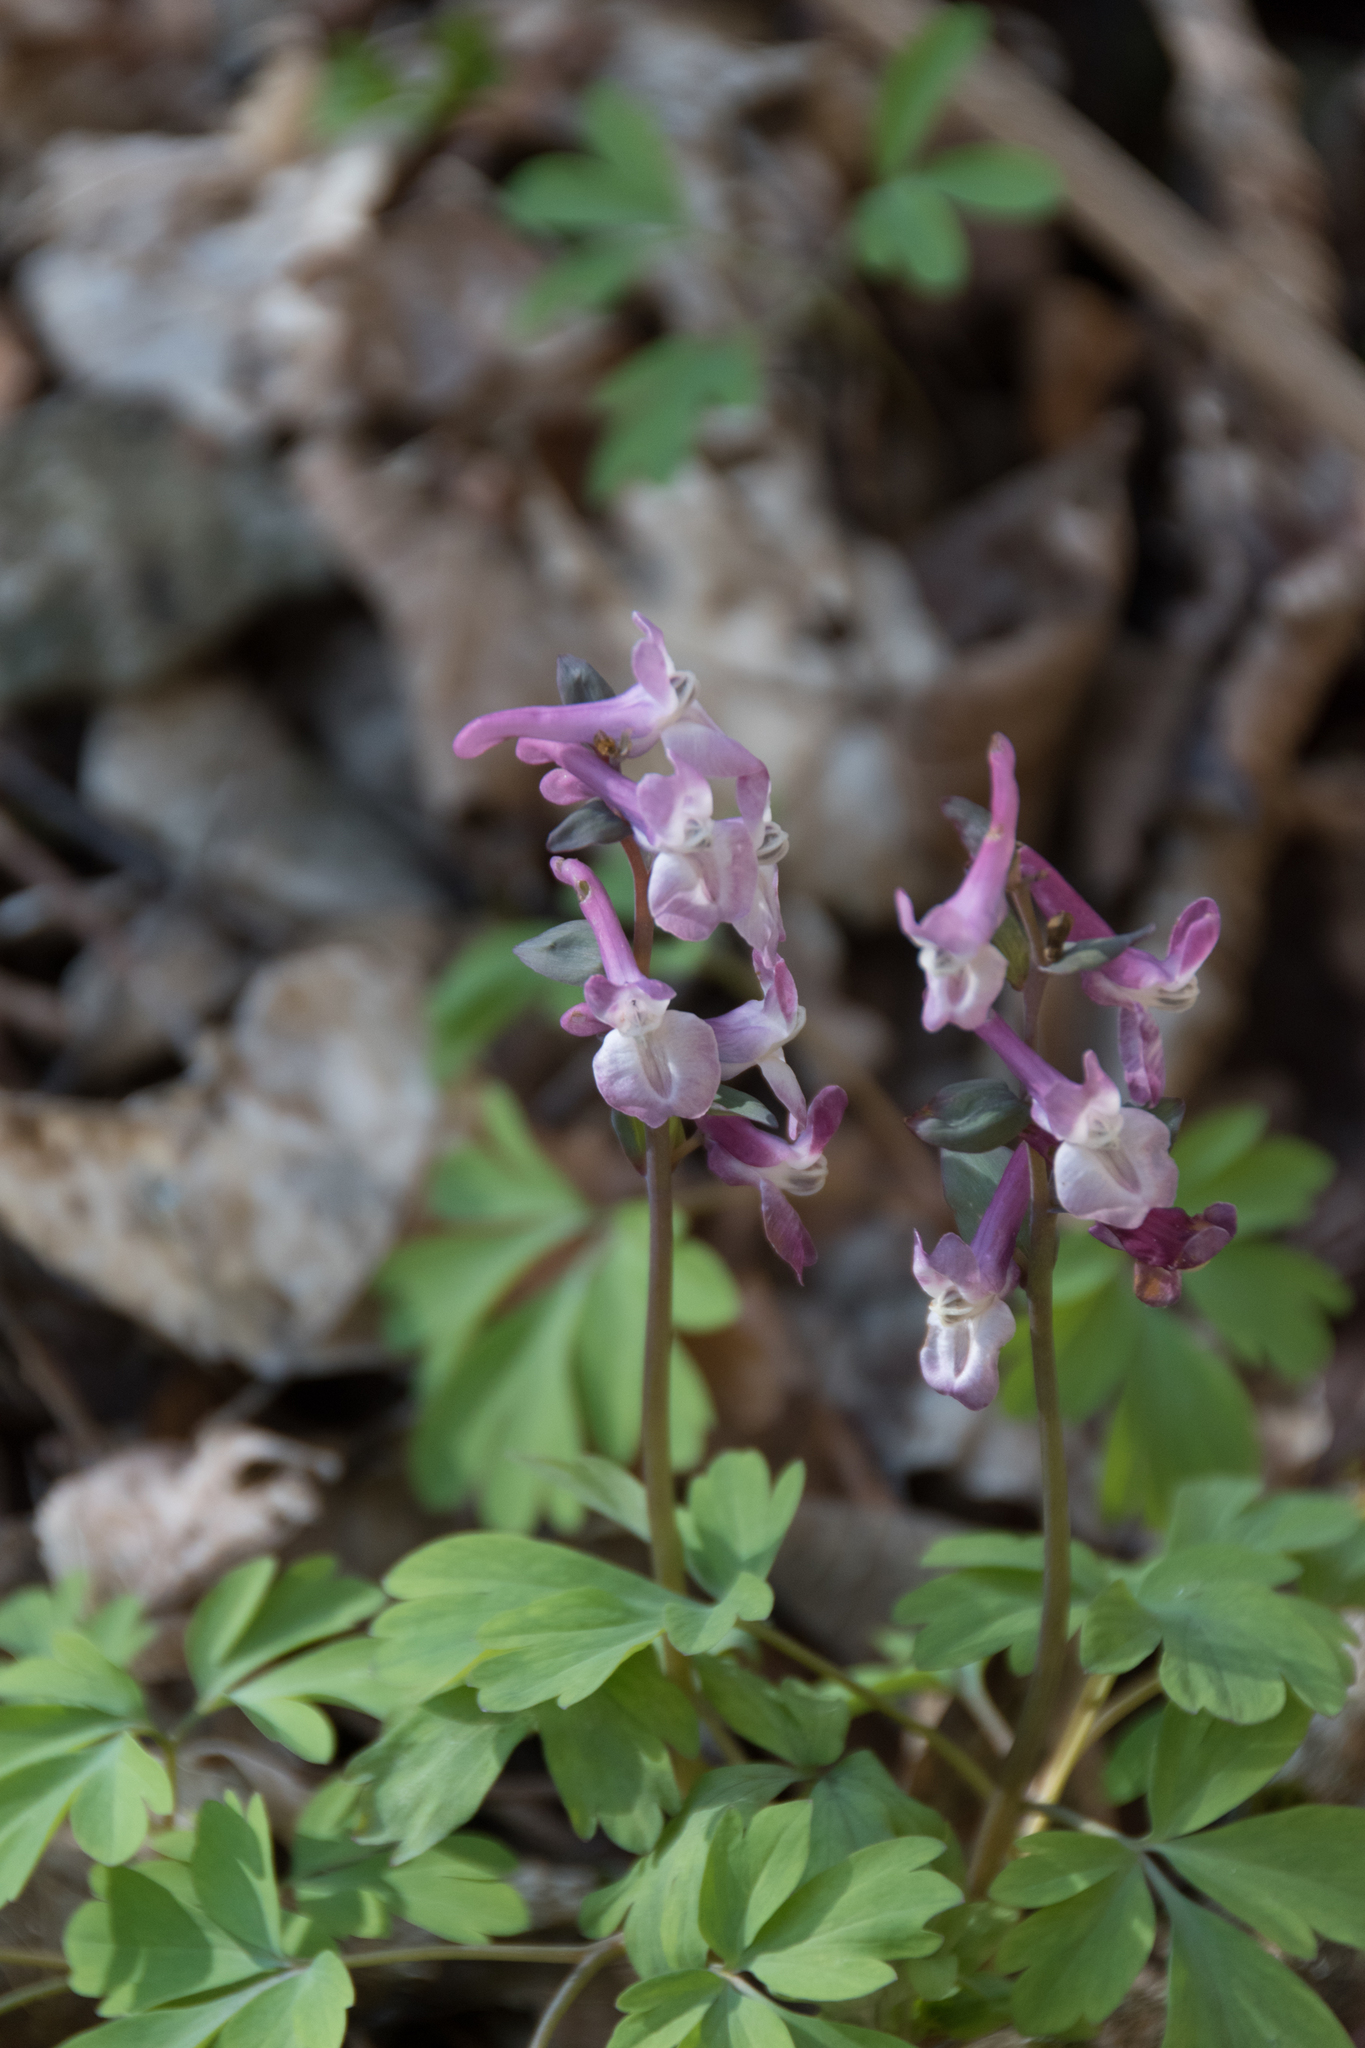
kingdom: Plantae
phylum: Tracheophyta
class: Magnoliopsida
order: Ranunculales
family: Papaveraceae
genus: Corydalis
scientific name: Corydalis cava
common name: Hollowroot
